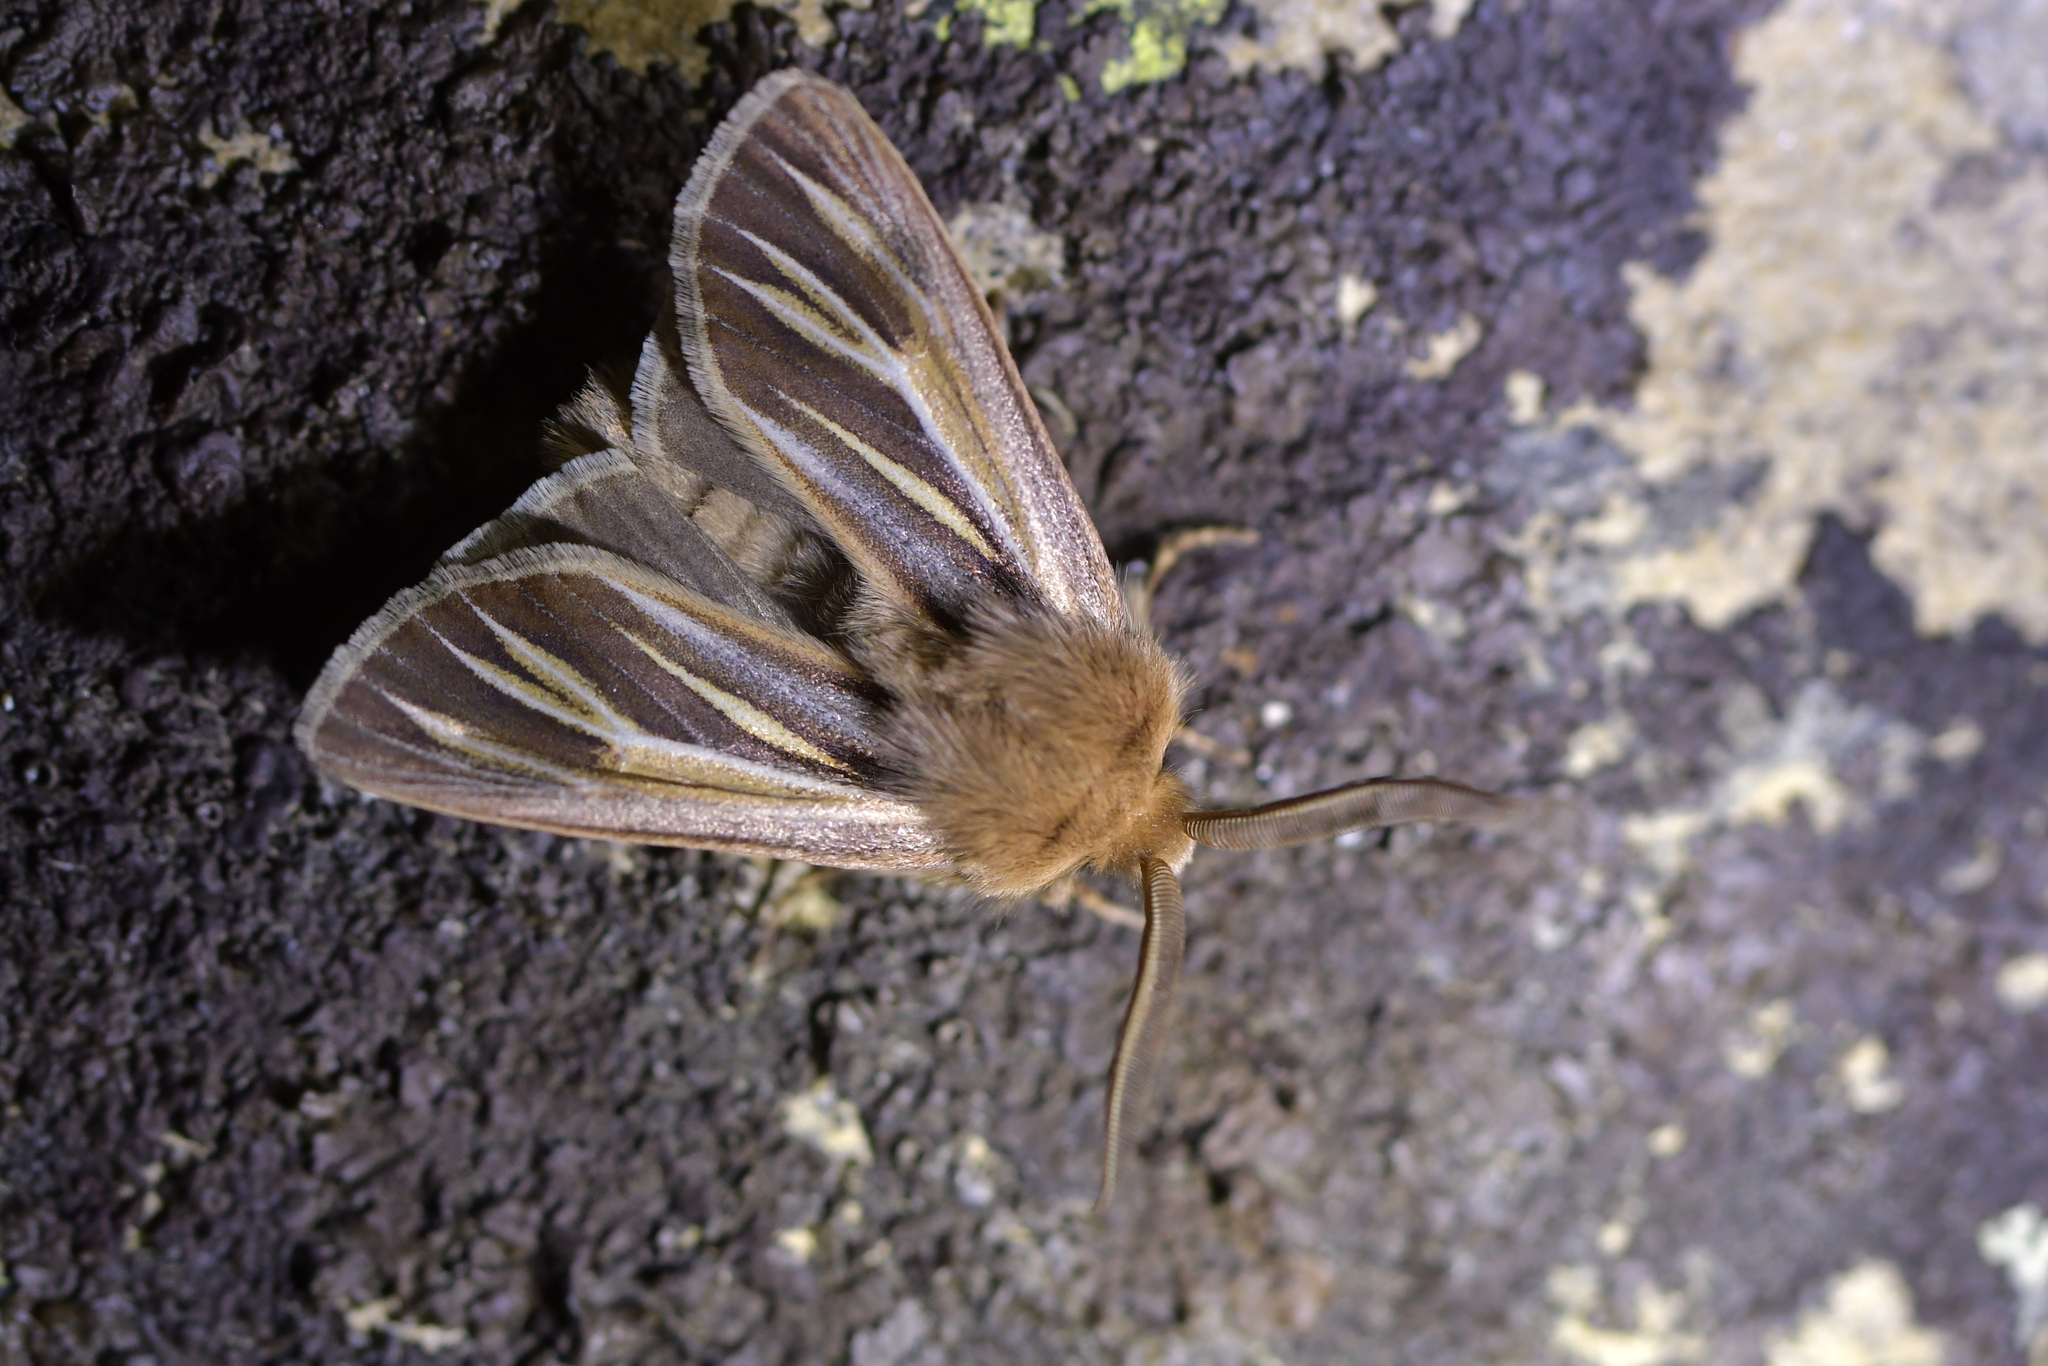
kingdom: Animalia
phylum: Arthropoda
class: Insecta
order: Lepidoptera
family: Noctuidae
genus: Ichneutica
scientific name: Ichneutica caraunias
